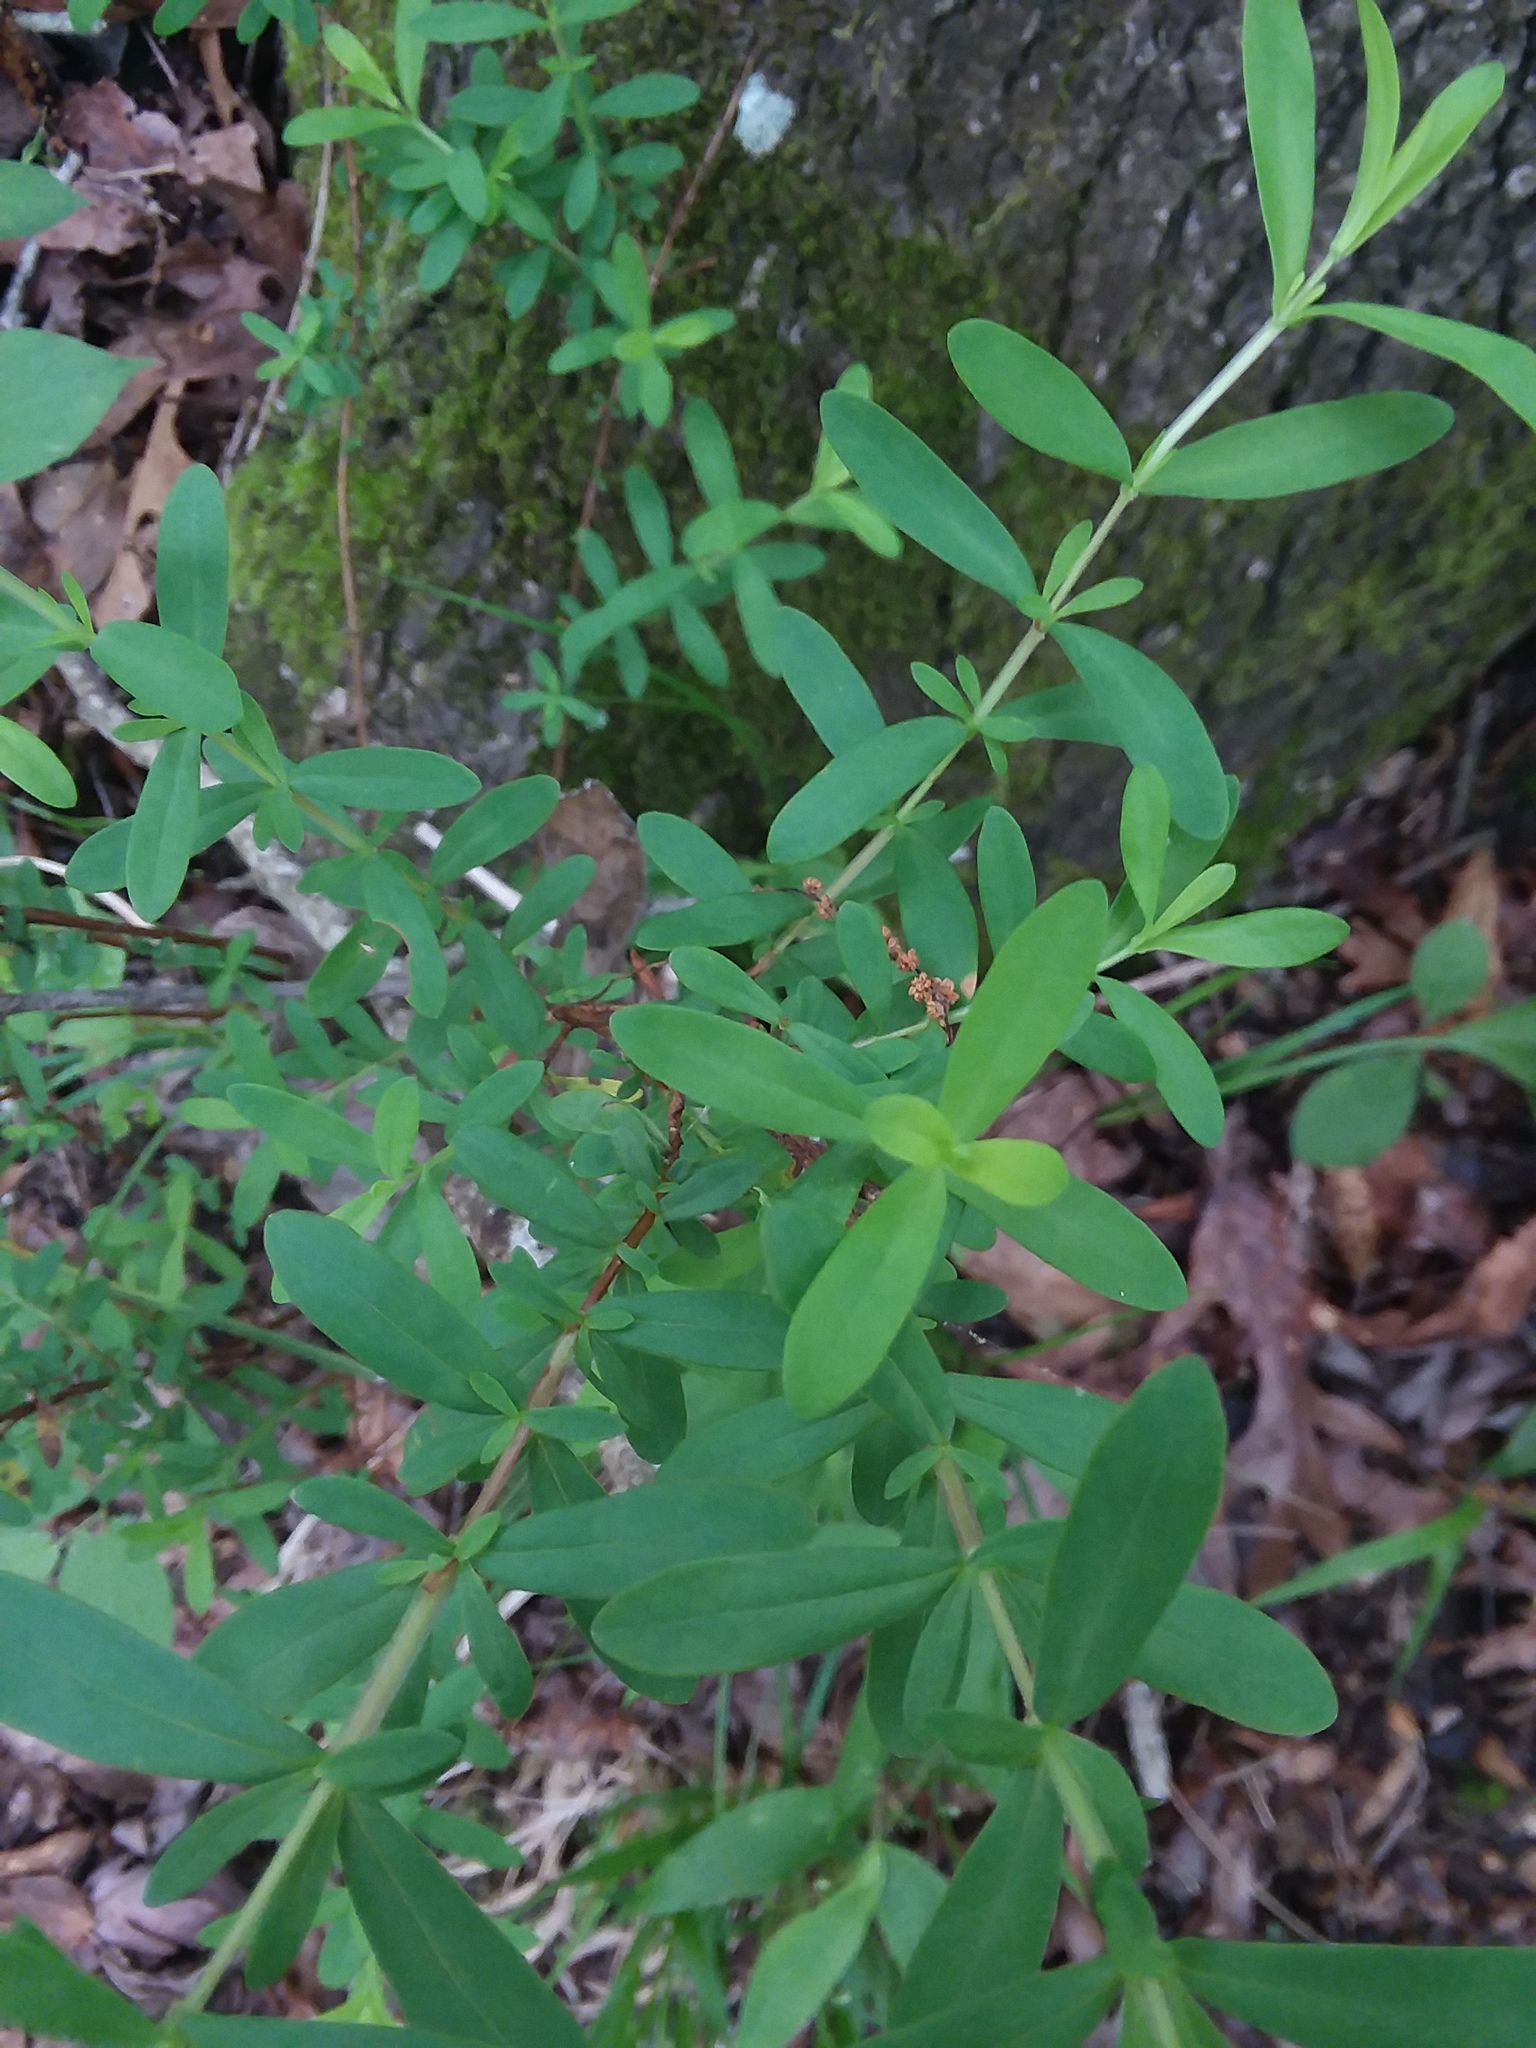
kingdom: Plantae
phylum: Tracheophyta
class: Magnoliopsida
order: Malpighiales
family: Hypericaceae
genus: Hypericum
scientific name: Hypericum hypericoides
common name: St. andrew's cross
